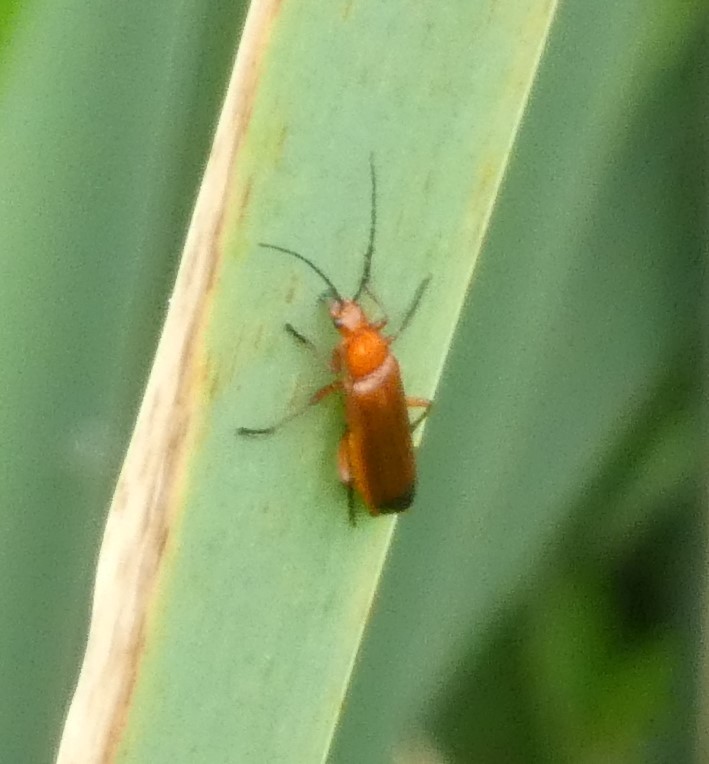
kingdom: Animalia
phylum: Arthropoda
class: Insecta
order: Coleoptera
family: Cantharidae
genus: Rhagonycha
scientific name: Rhagonycha fulva
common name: Common red soldier beetle
